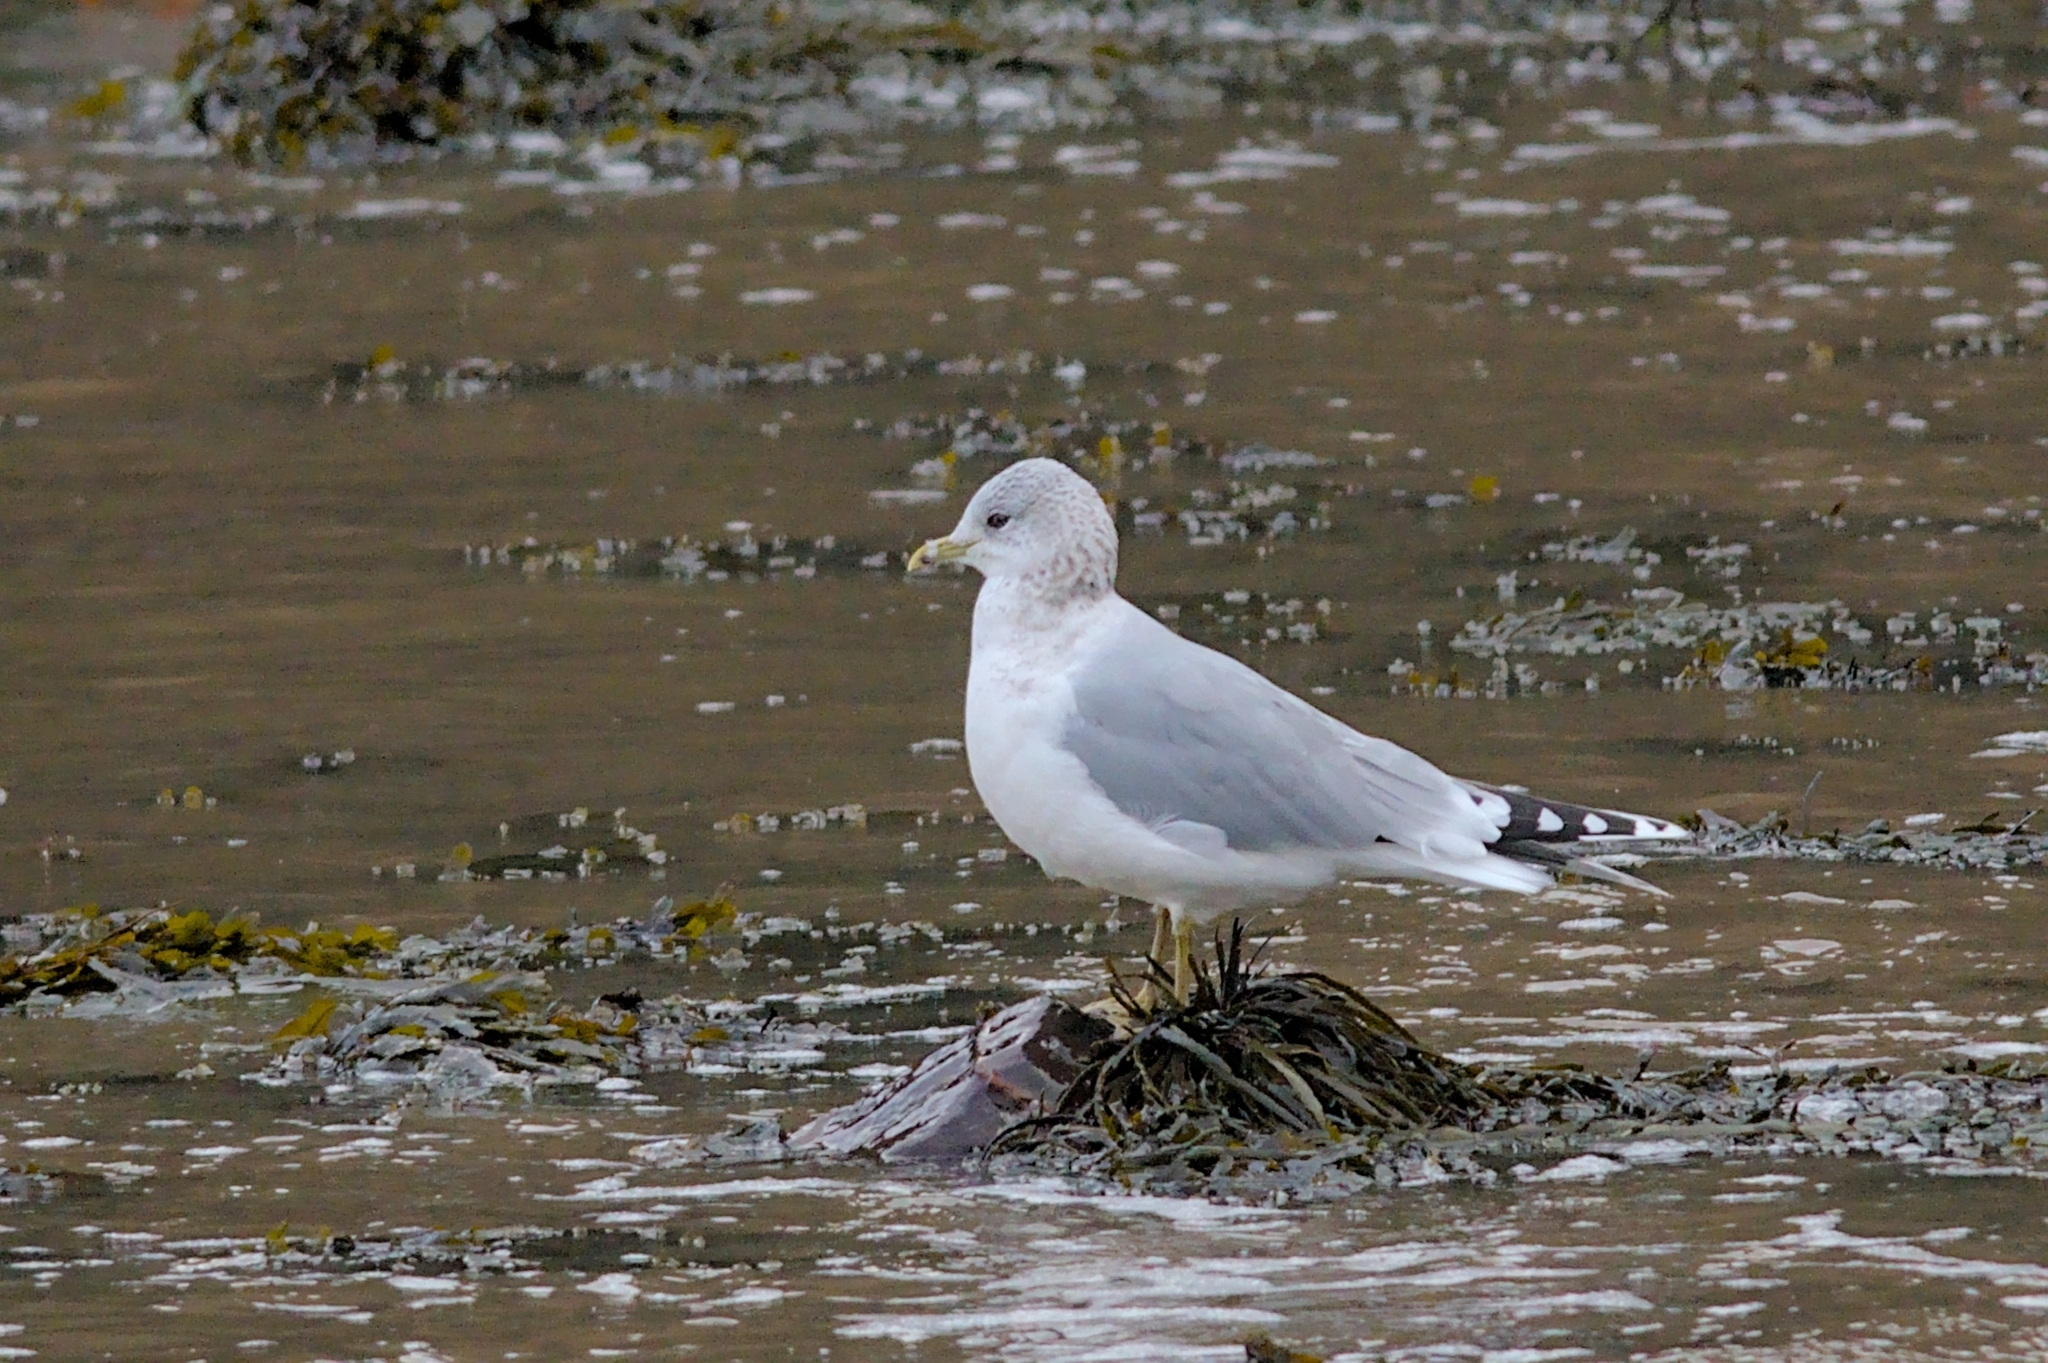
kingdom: Animalia
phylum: Chordata
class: Aves
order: Charadriiformes
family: Laridae
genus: Larus
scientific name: Larus canus
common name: Mew gull
